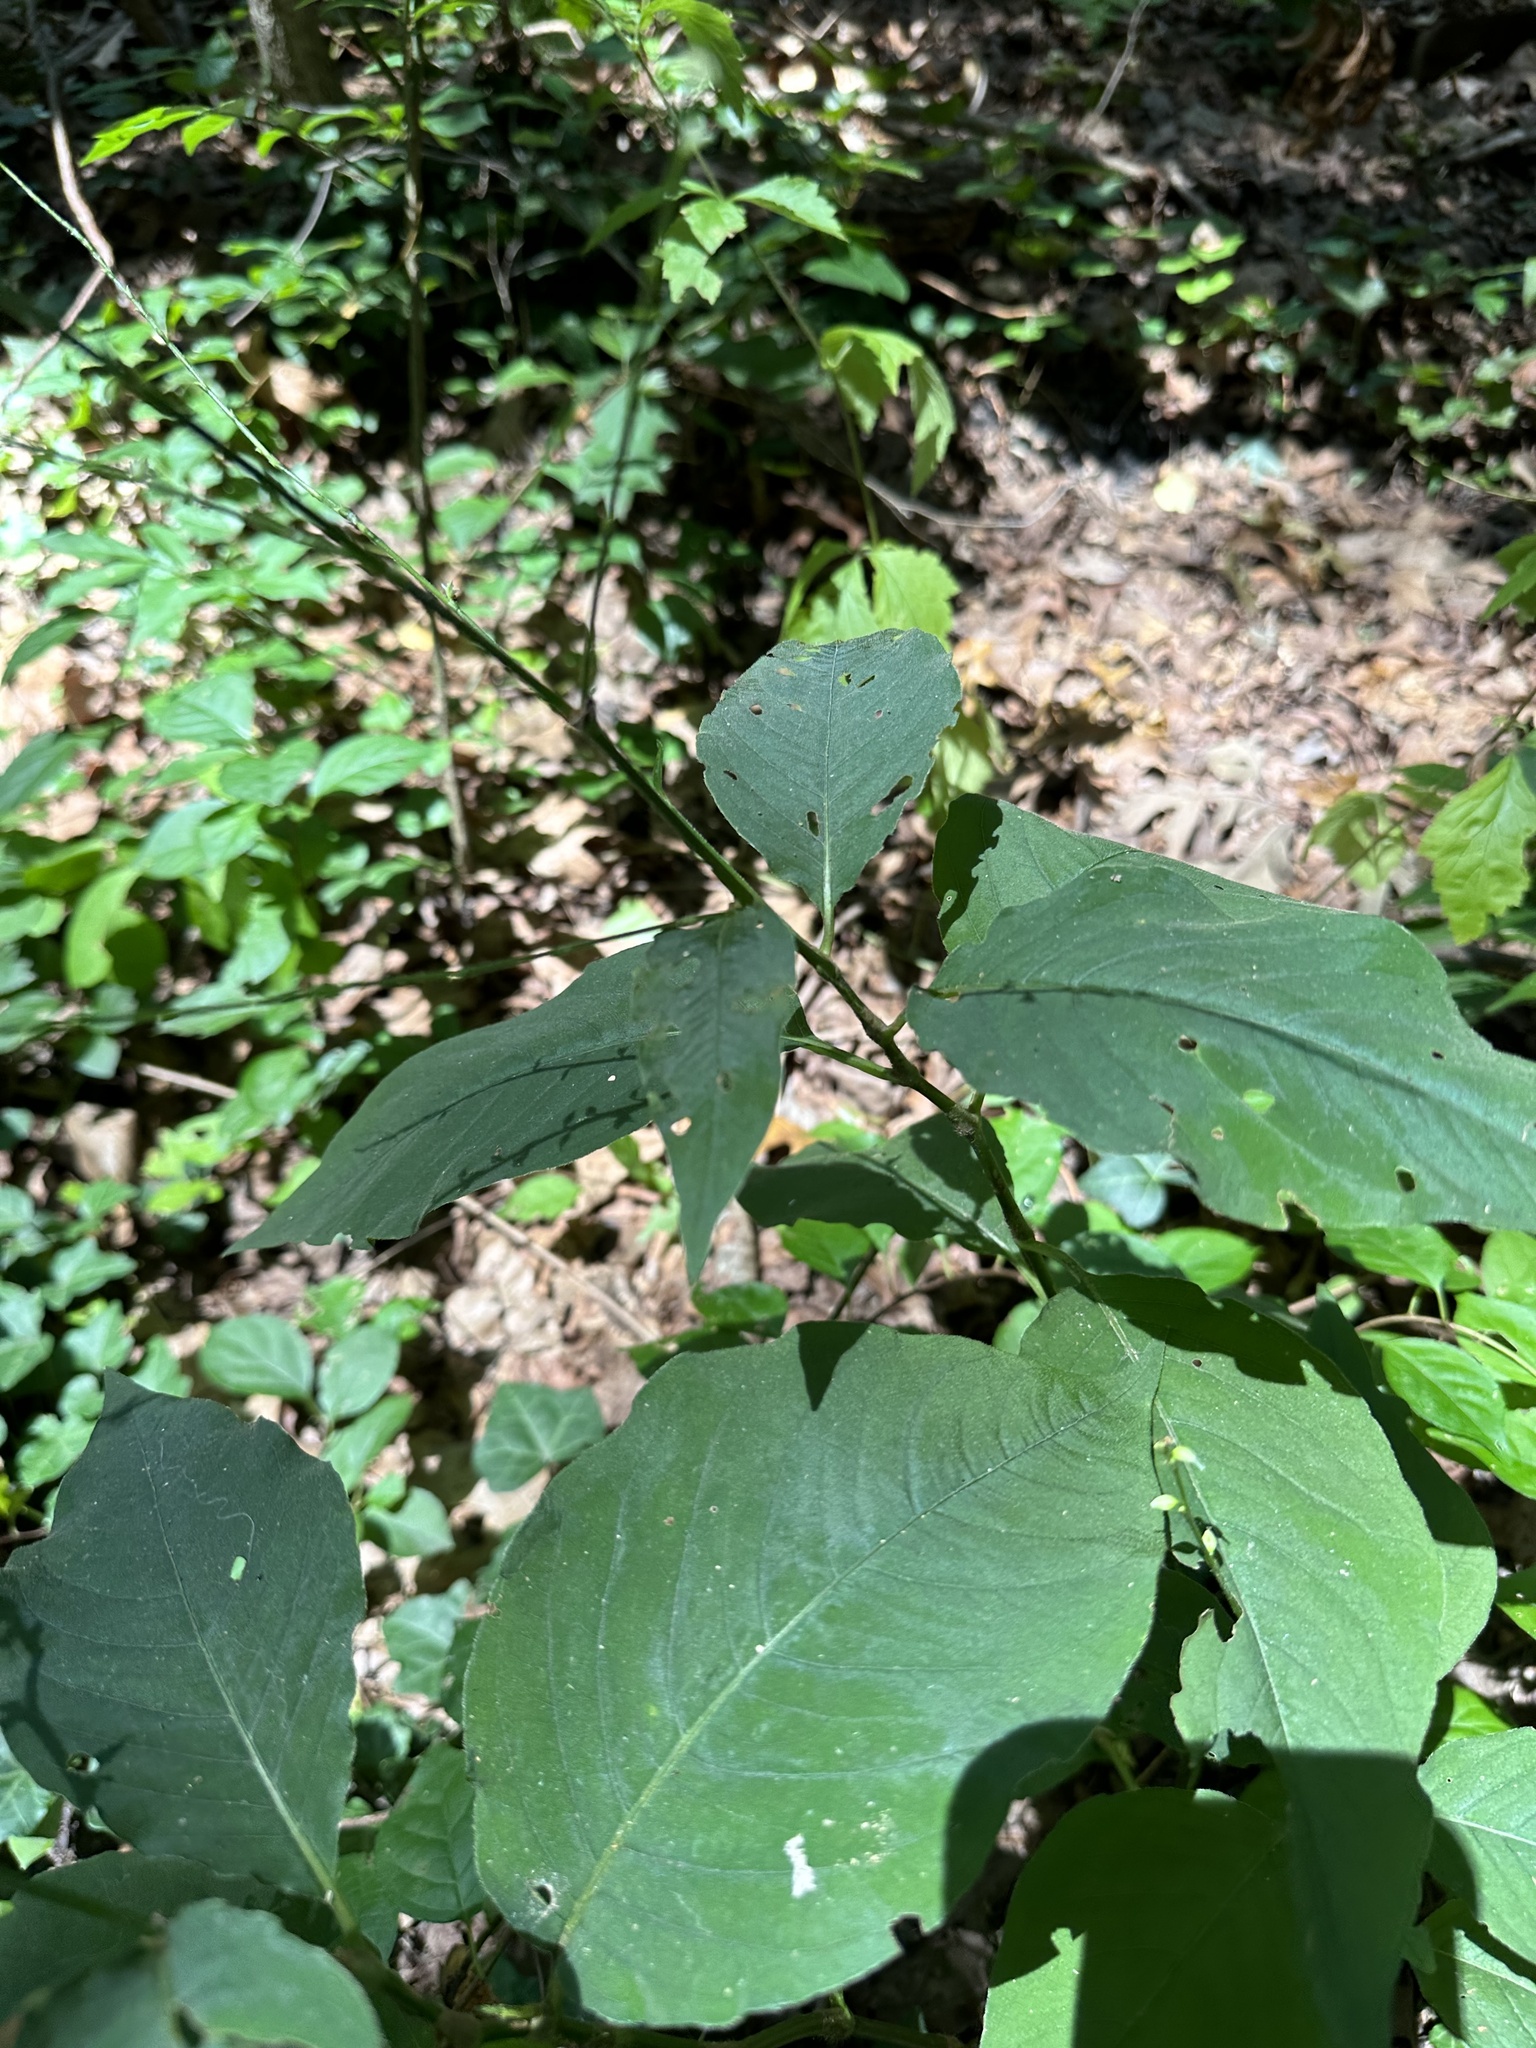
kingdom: Plantae
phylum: Tracheophyta
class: Magnoliopsida
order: Caryophyllales
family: Polygonaceae
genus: Persicaria
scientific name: Persicaria virginiana
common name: Jumpseed
